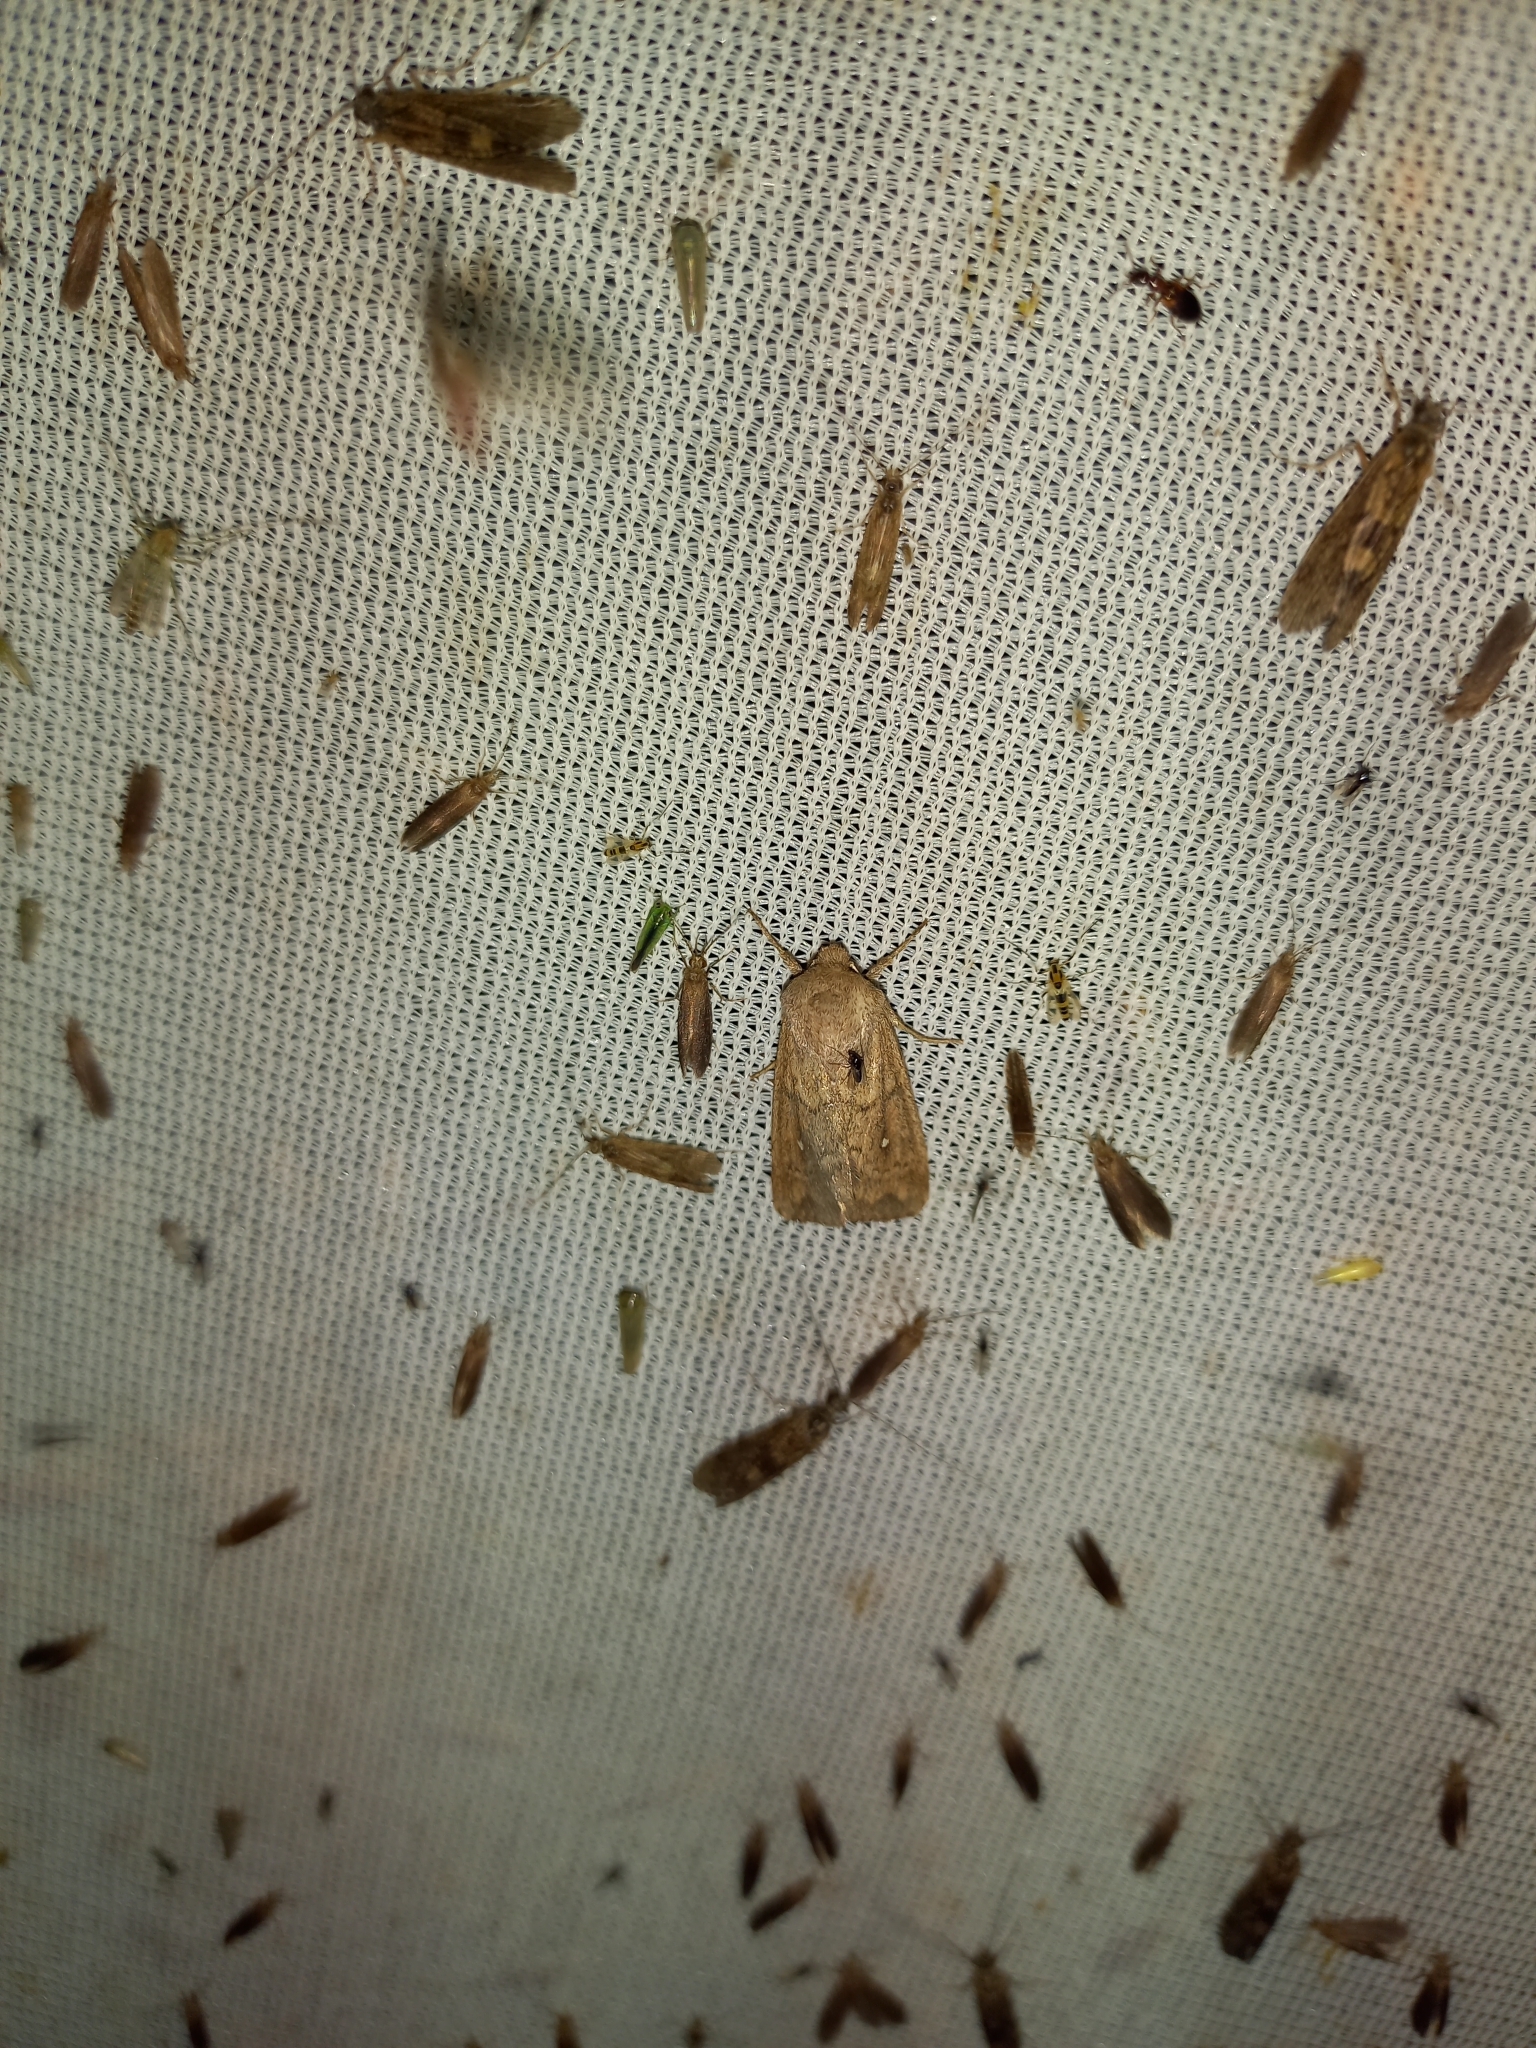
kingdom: Animalia
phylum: Arthropoda
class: Insecta
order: Lepidoptera
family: Noctuidae
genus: Mythimna
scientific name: Mythimna albipuncta
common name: White-point
